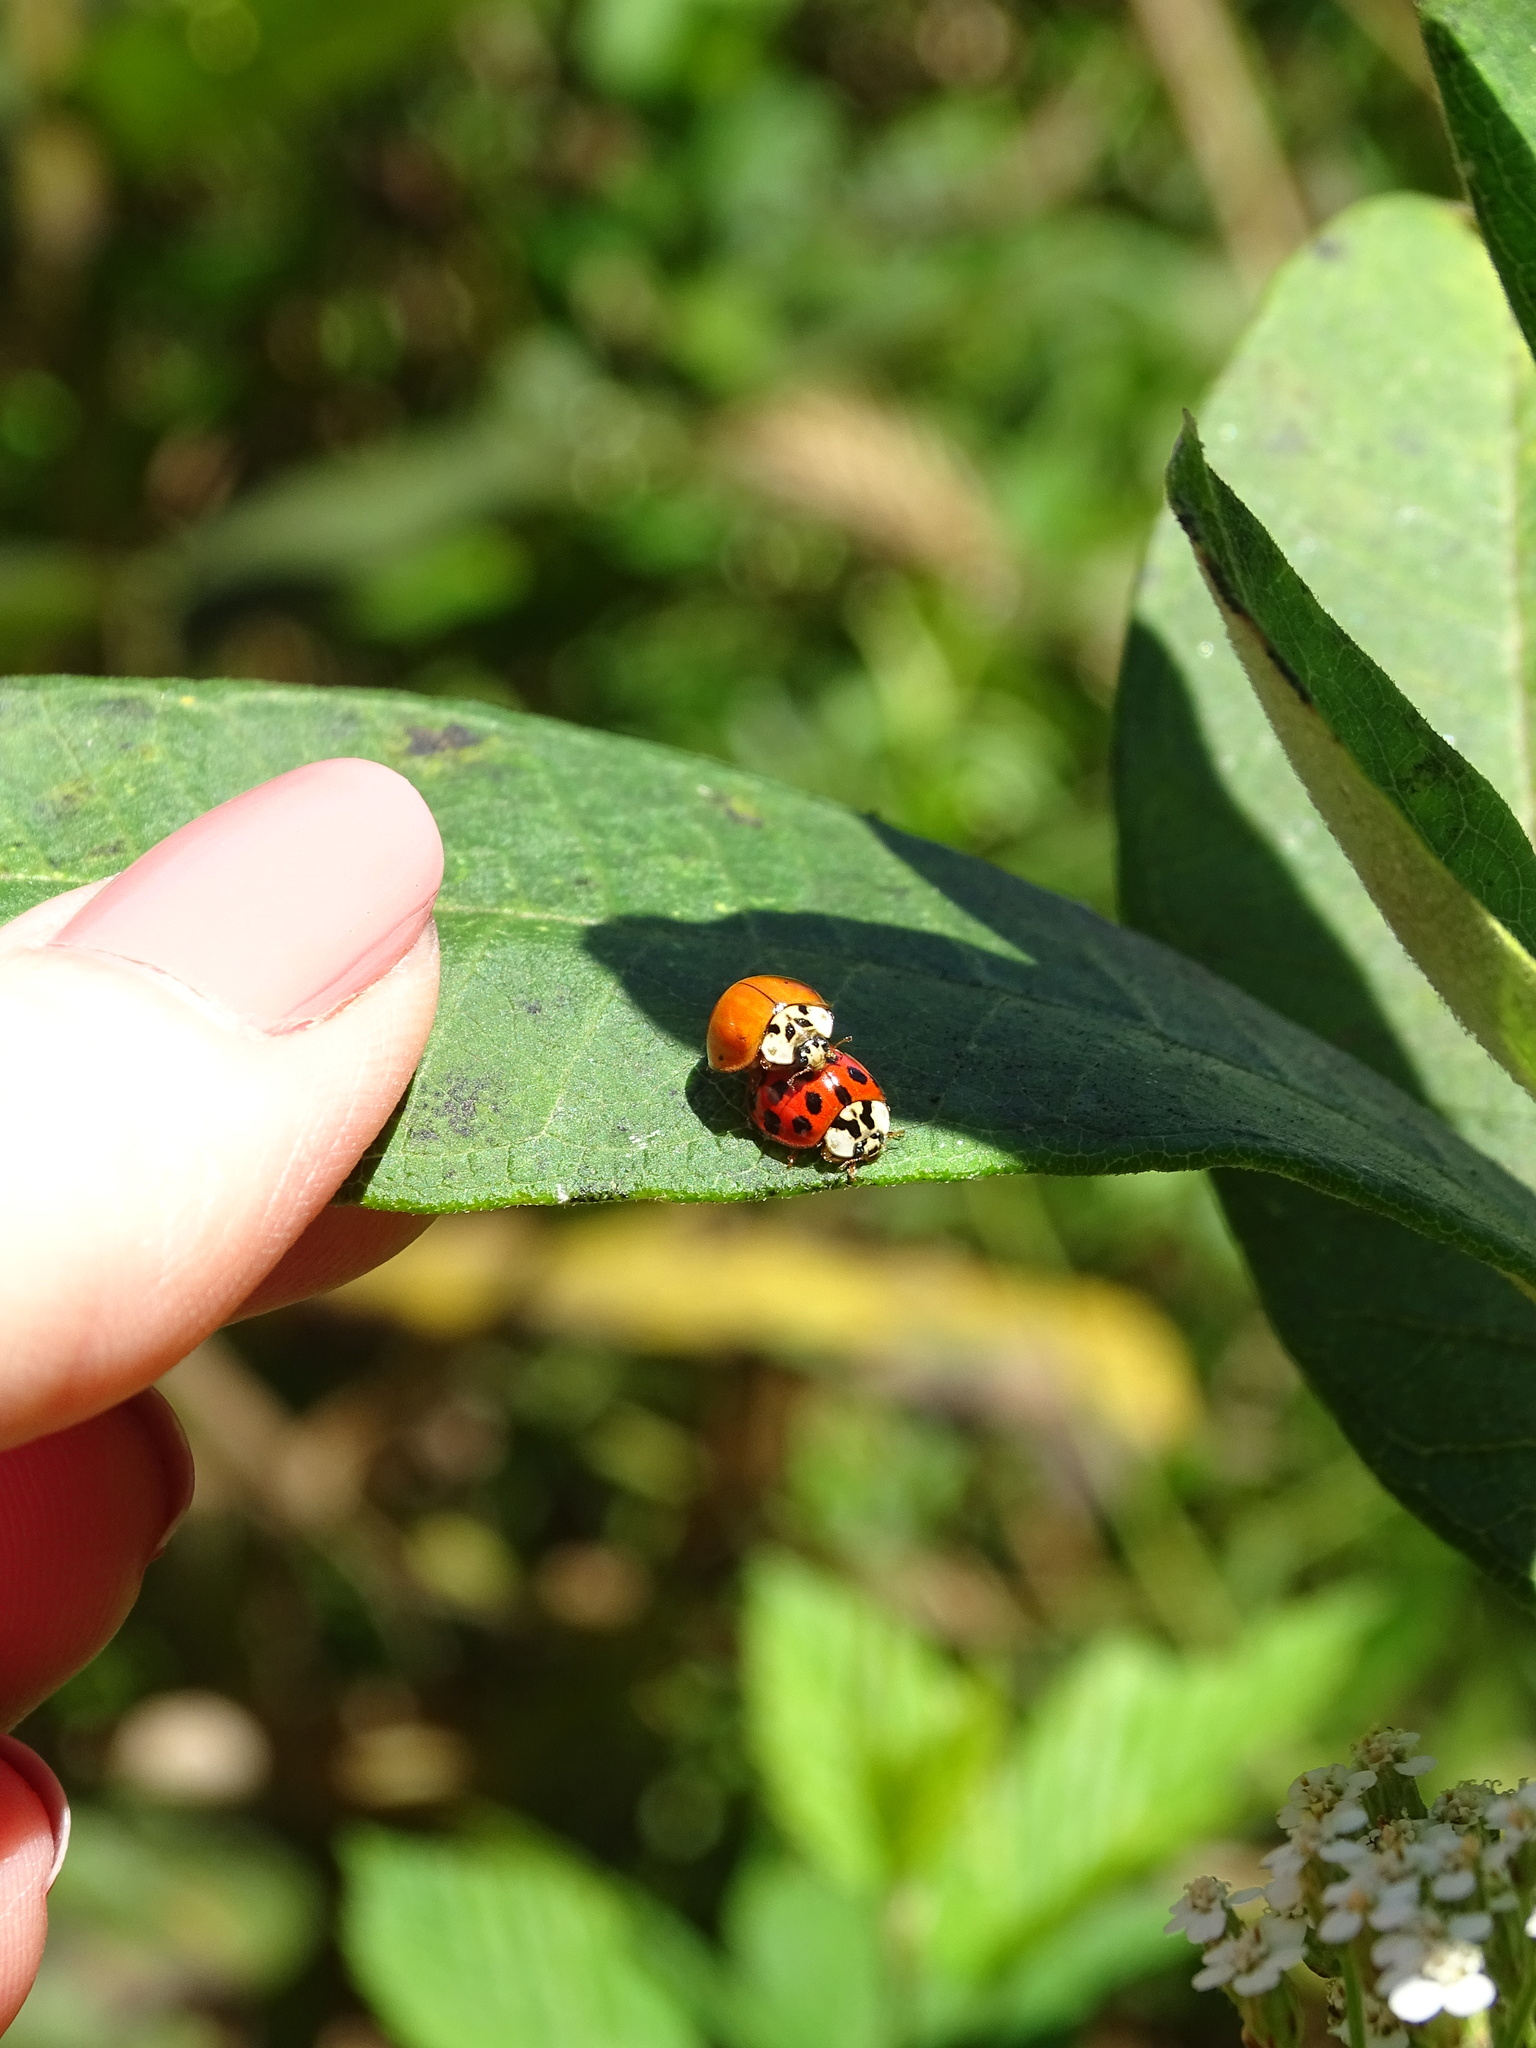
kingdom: Animalia
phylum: Arthropoda
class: Insecta
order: Coleoptera
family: Coccinellidae
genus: Harmonia
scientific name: Harmonia axyridis
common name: Harlequin ladybird
